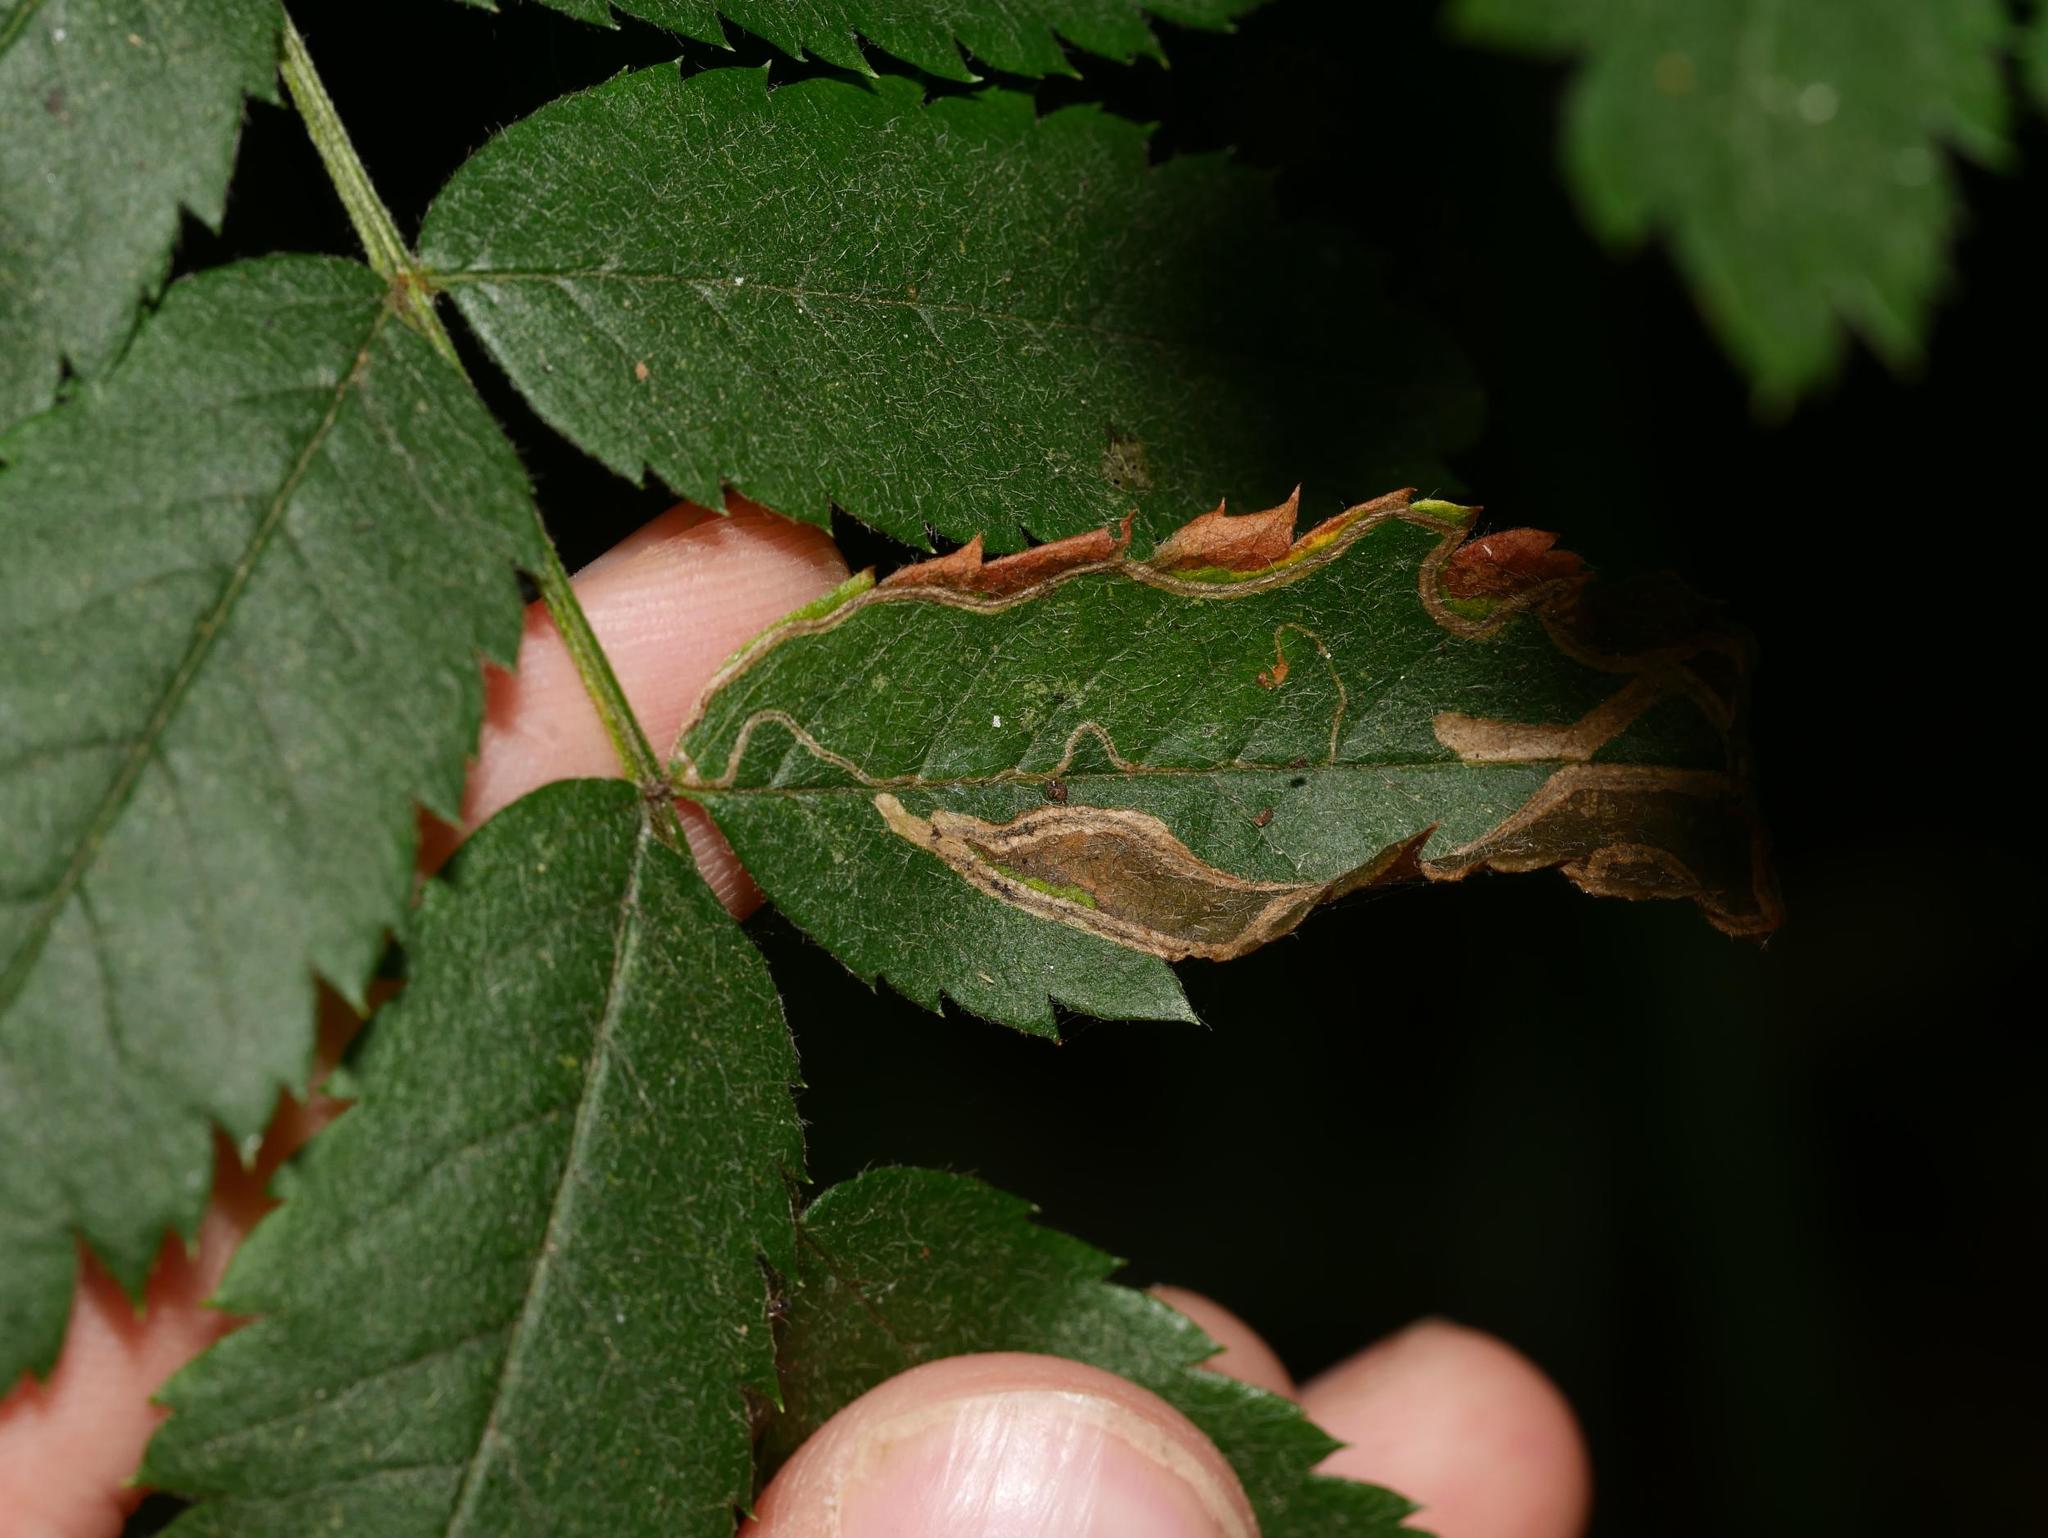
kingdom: Animalia
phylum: Arthropoda
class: Insecta
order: Lepidoptera
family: Lyonetiidae
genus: Lyonetia
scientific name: Lyonetia clerkella
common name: Apple leaf miner
